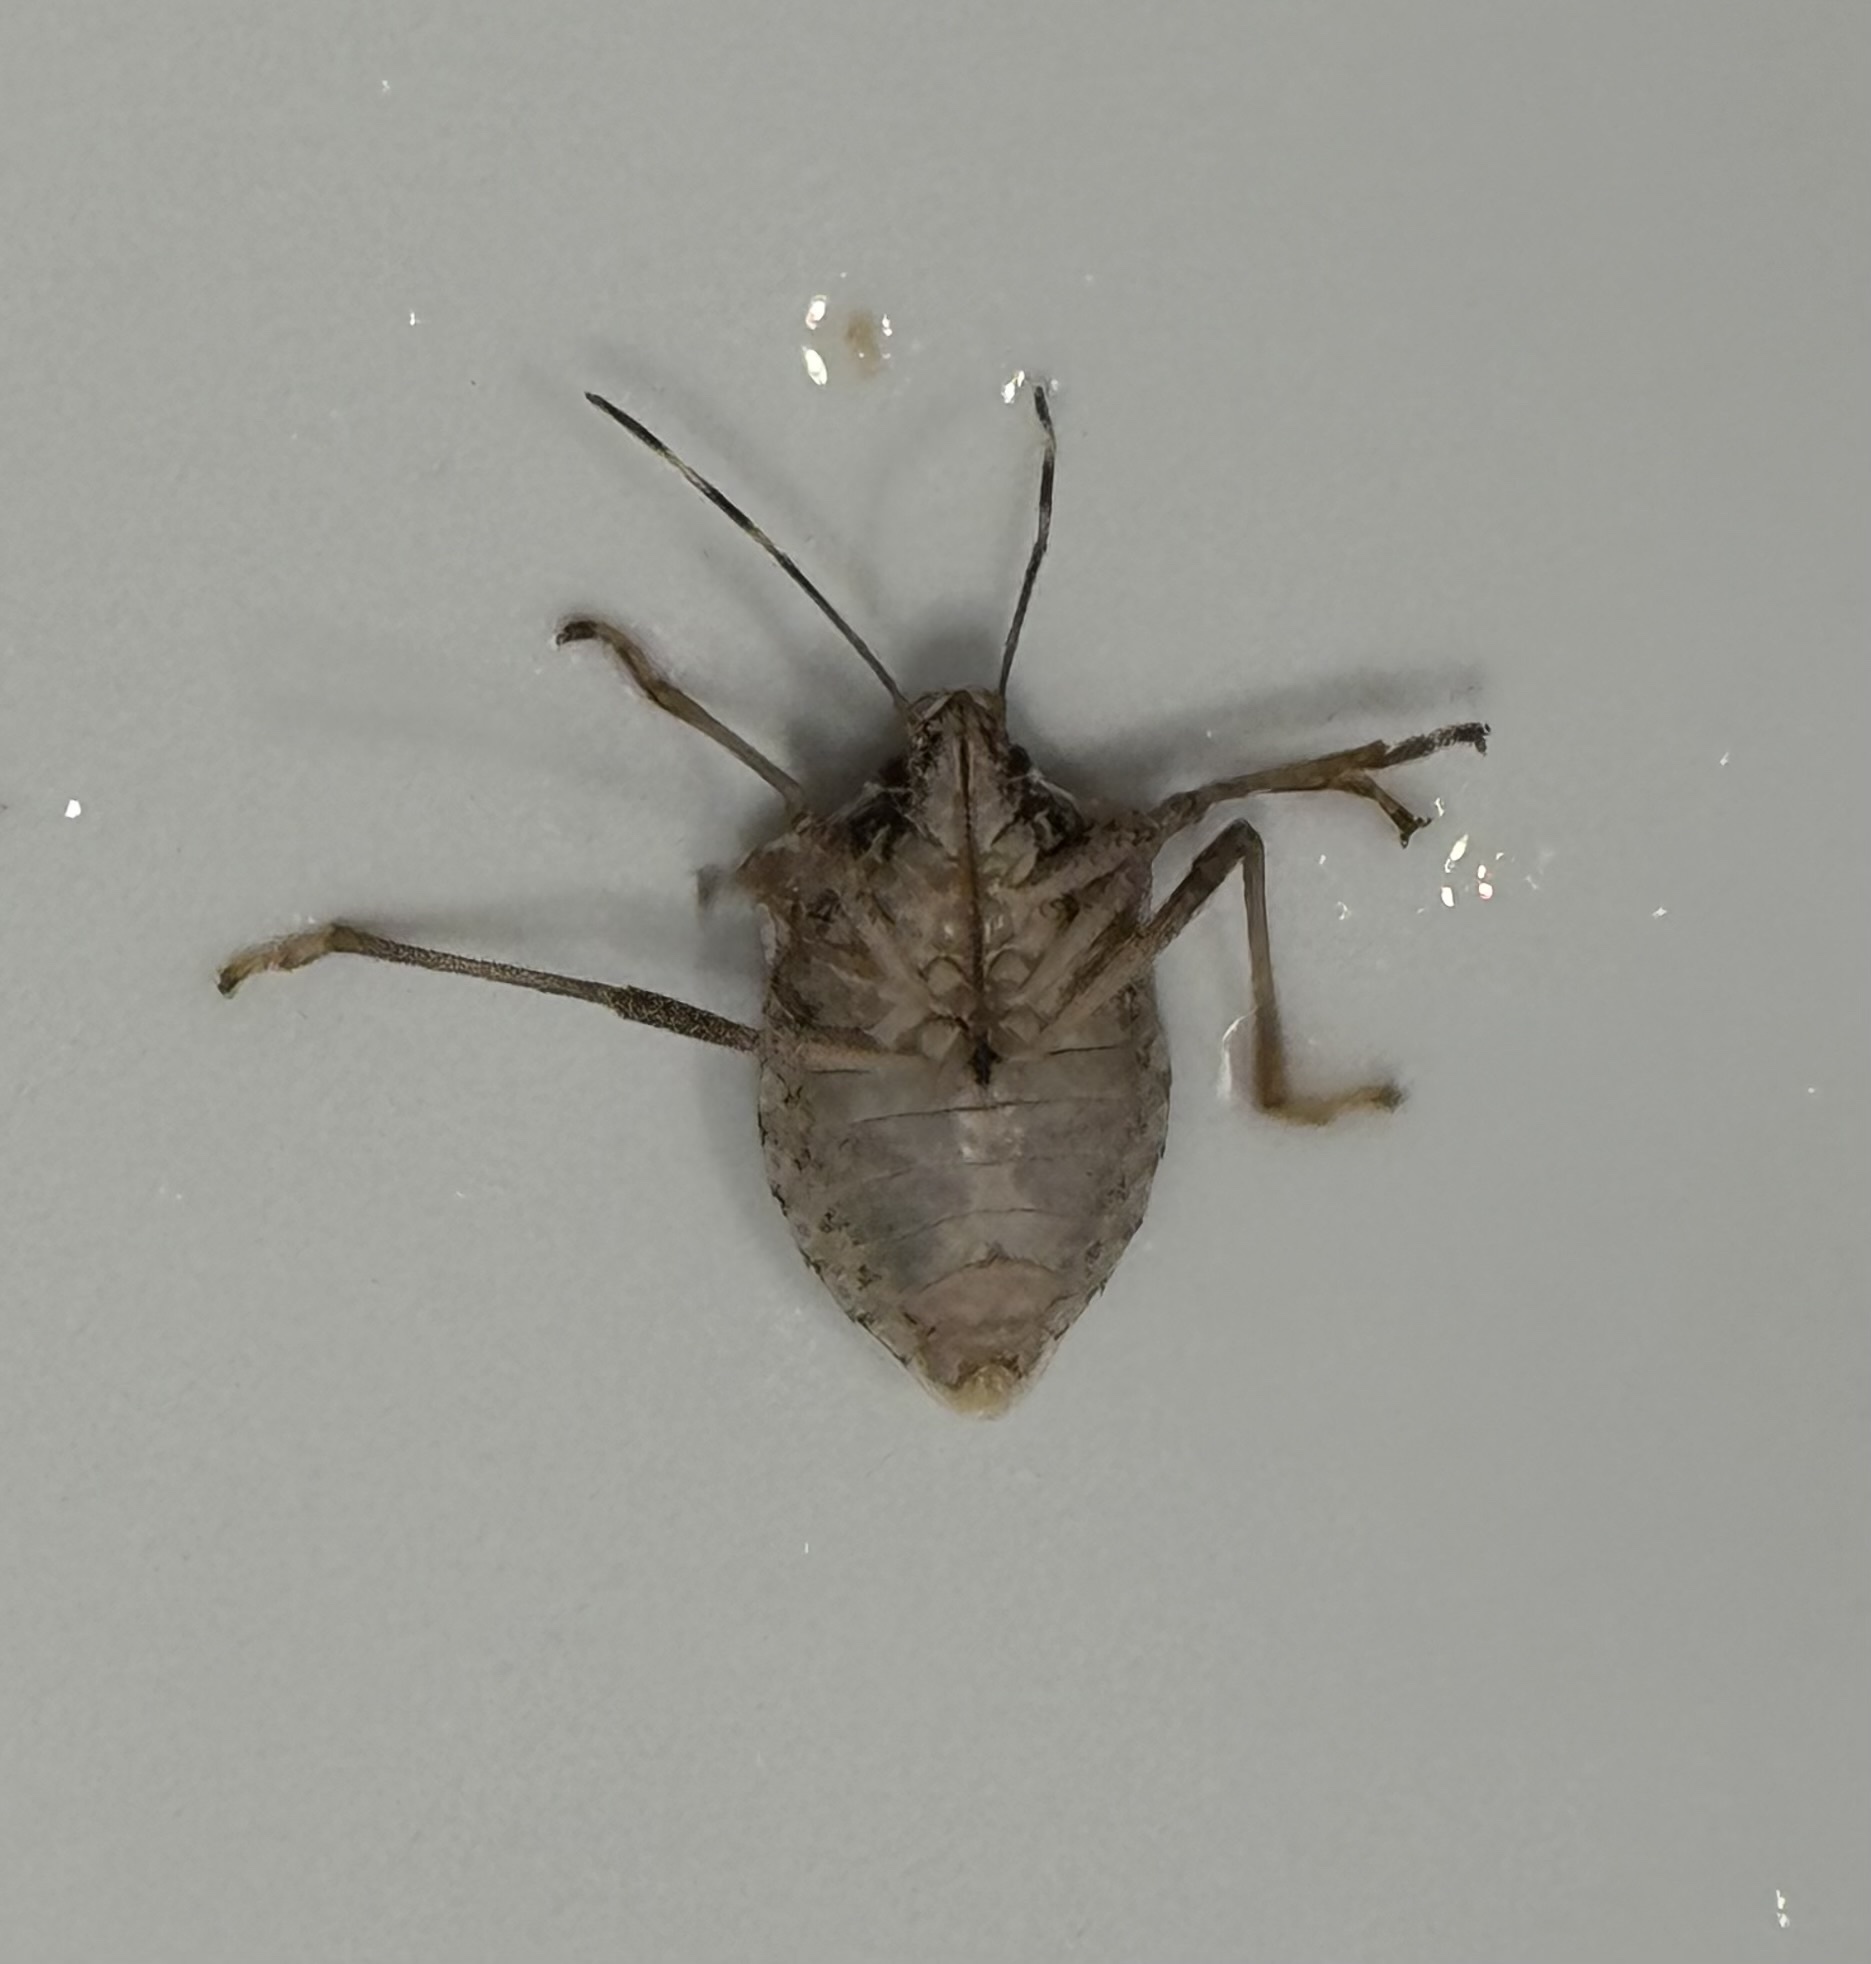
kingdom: Animalia
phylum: Arthropoda
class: Insecta
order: Hemiptera
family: Pentatomidae
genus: Halyomorpha
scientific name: Halyomorpha halys
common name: Brown marmorated stink bug
